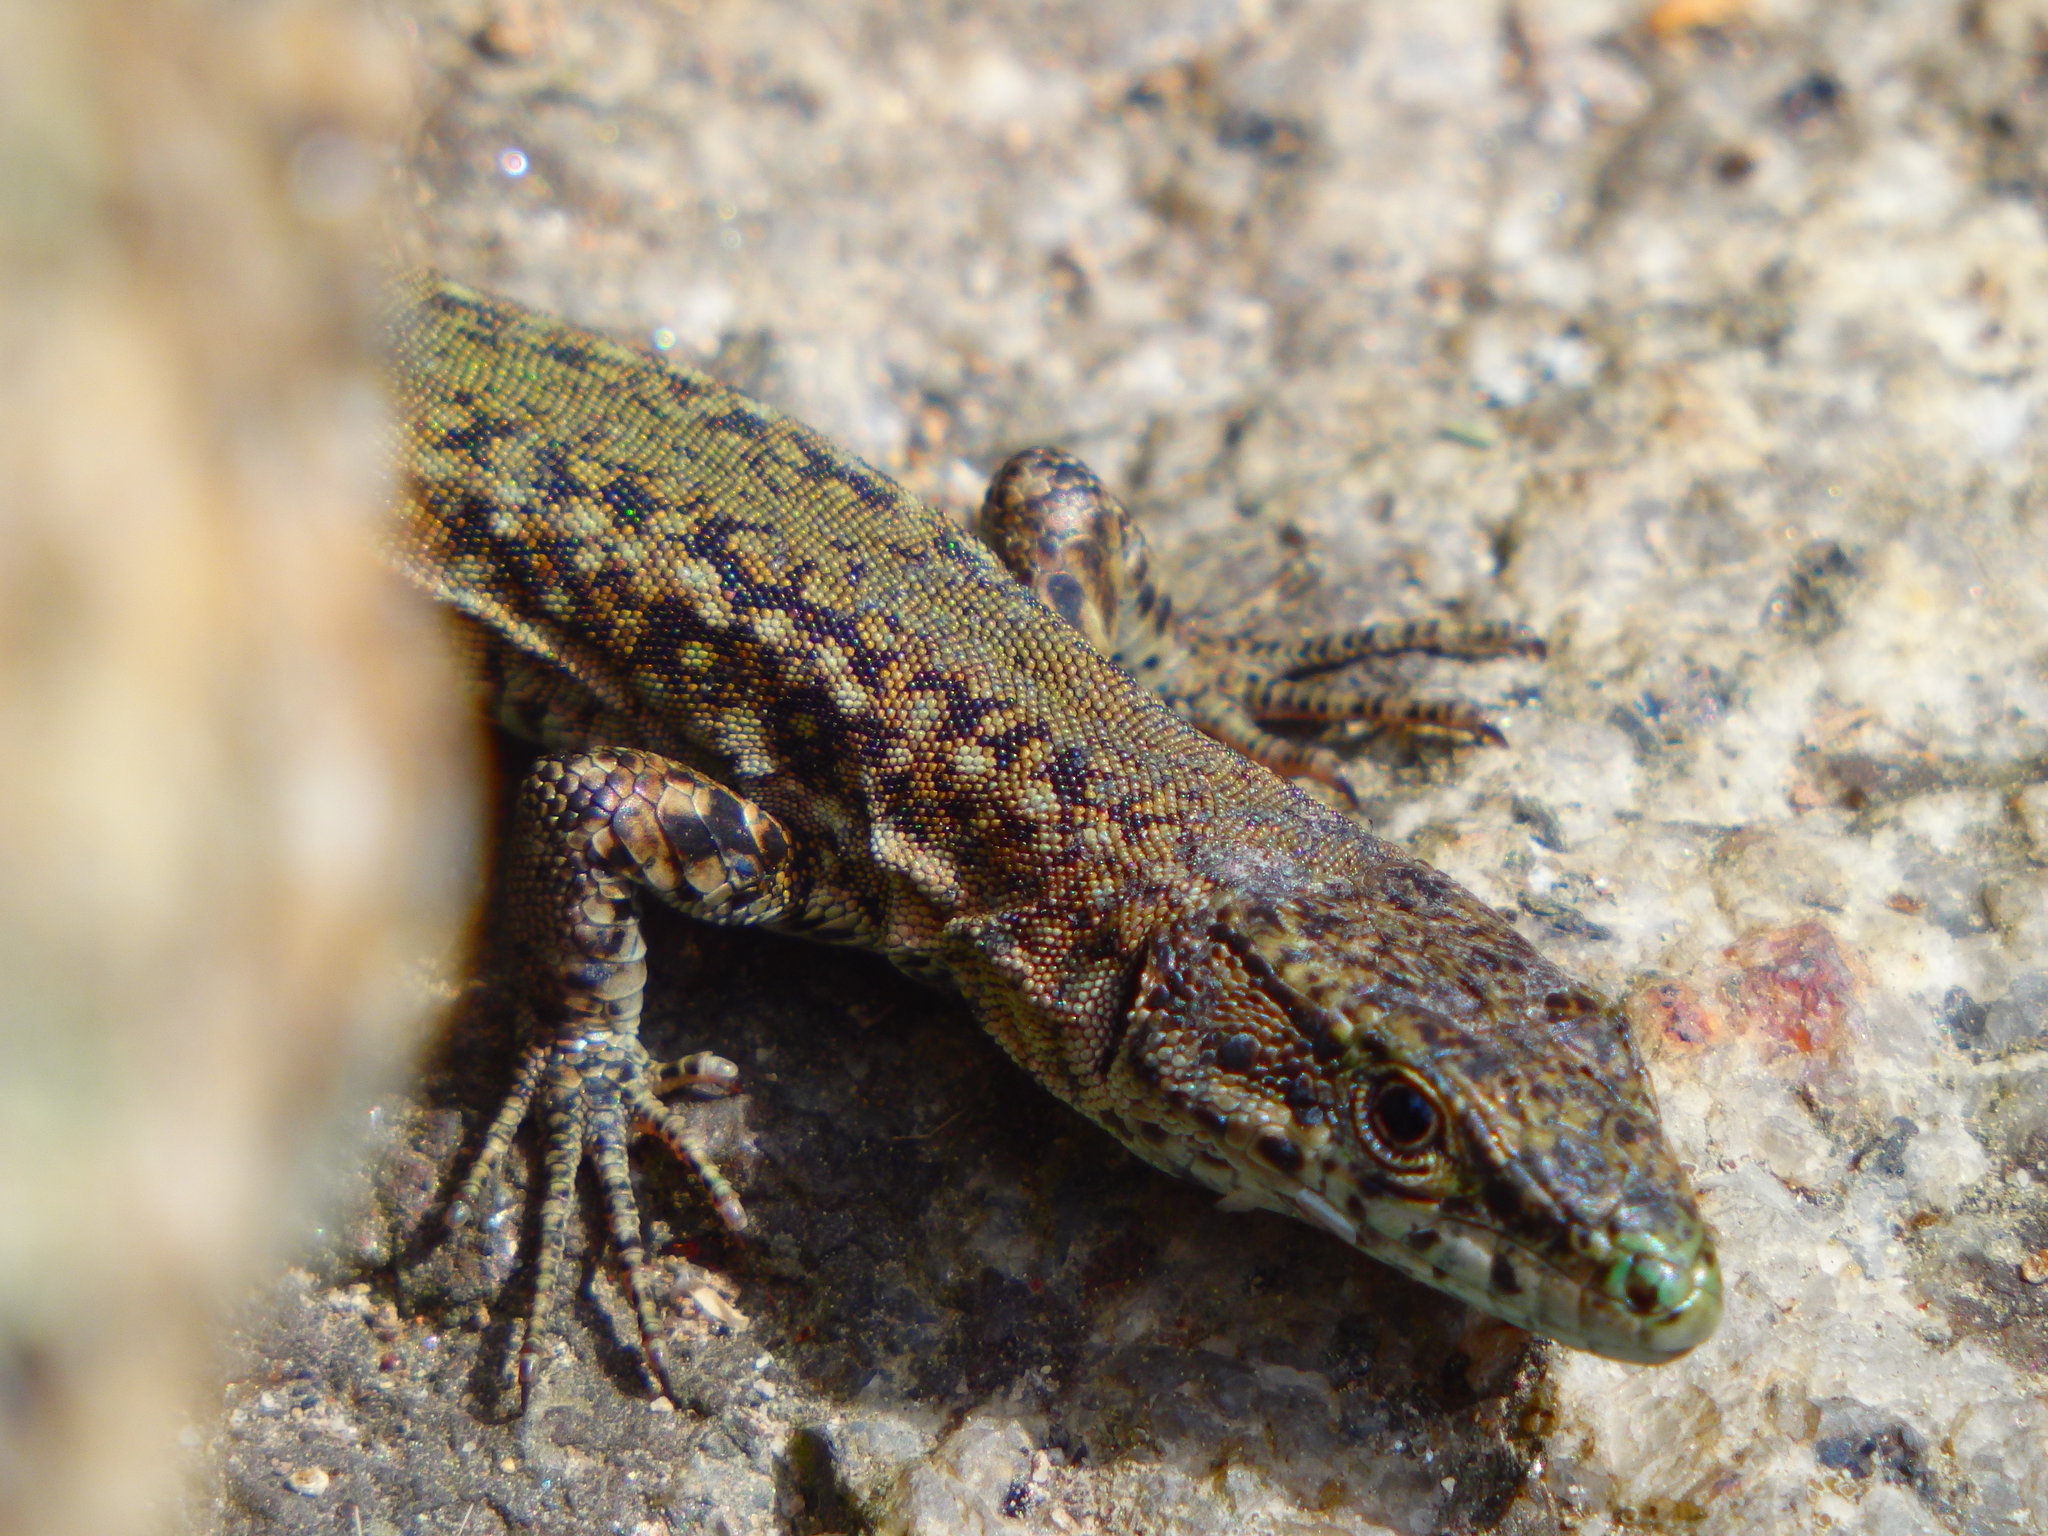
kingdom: Animalia
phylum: Chordata
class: Squamata
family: Lacertidae
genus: Podarcis
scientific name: Podarcis
